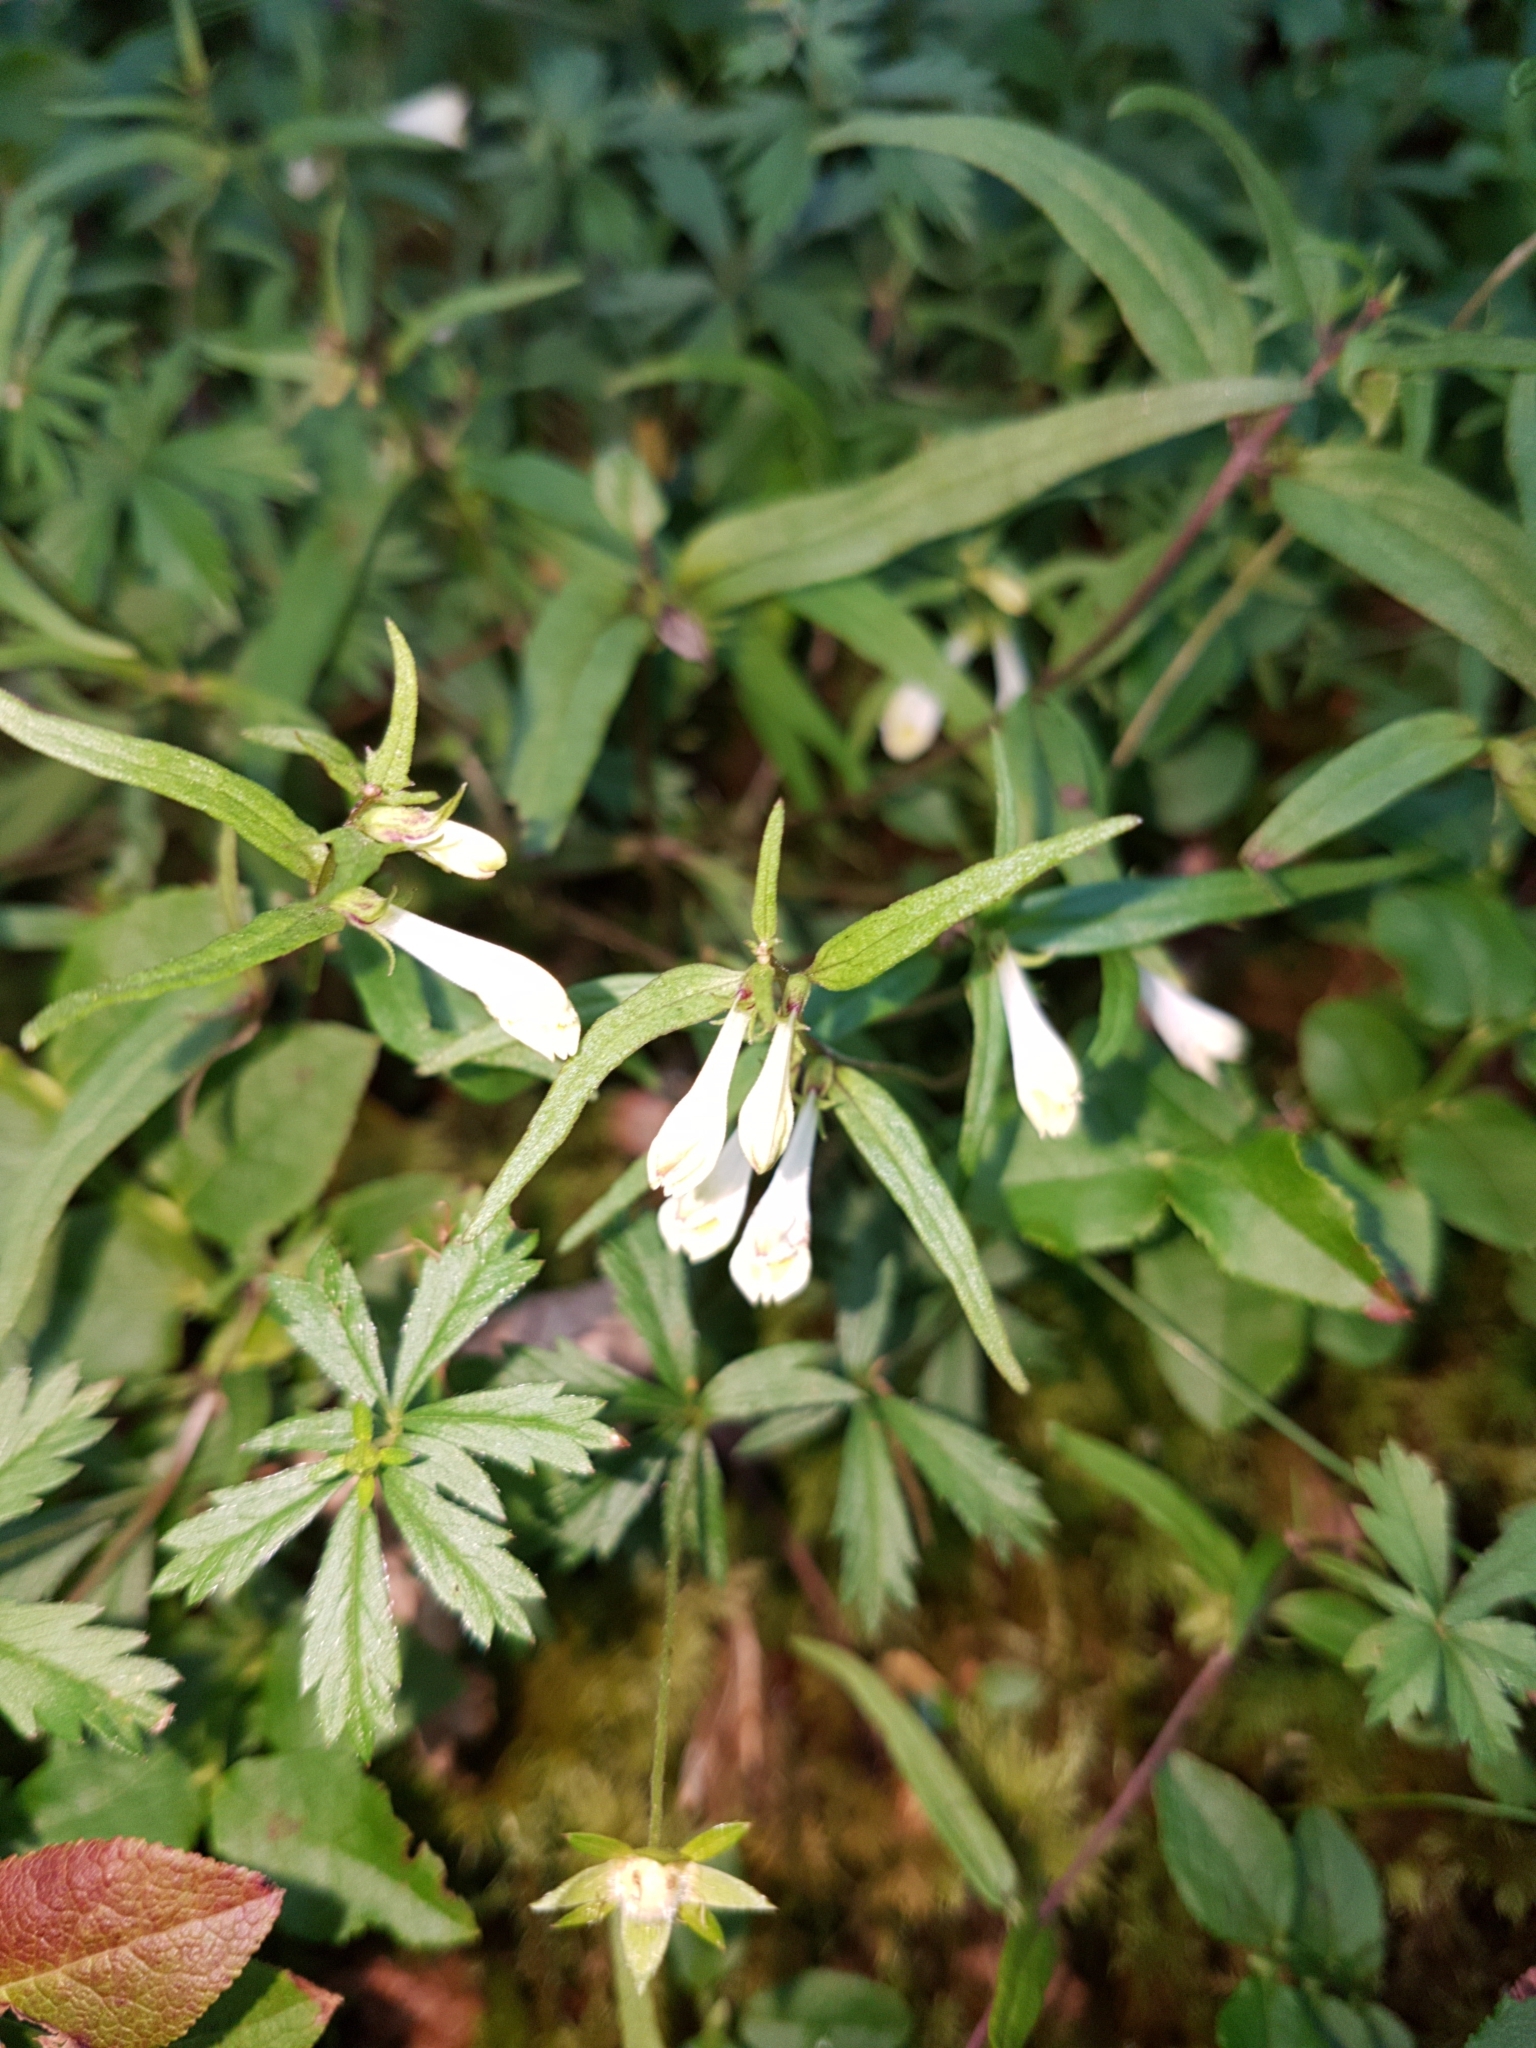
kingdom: Plantae
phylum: Tracheophyta
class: Magnoliopsida
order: Lamiales
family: Orobanchaceae
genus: Melampyrum
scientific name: Melampyrum pratense
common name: Common cow-wheat
